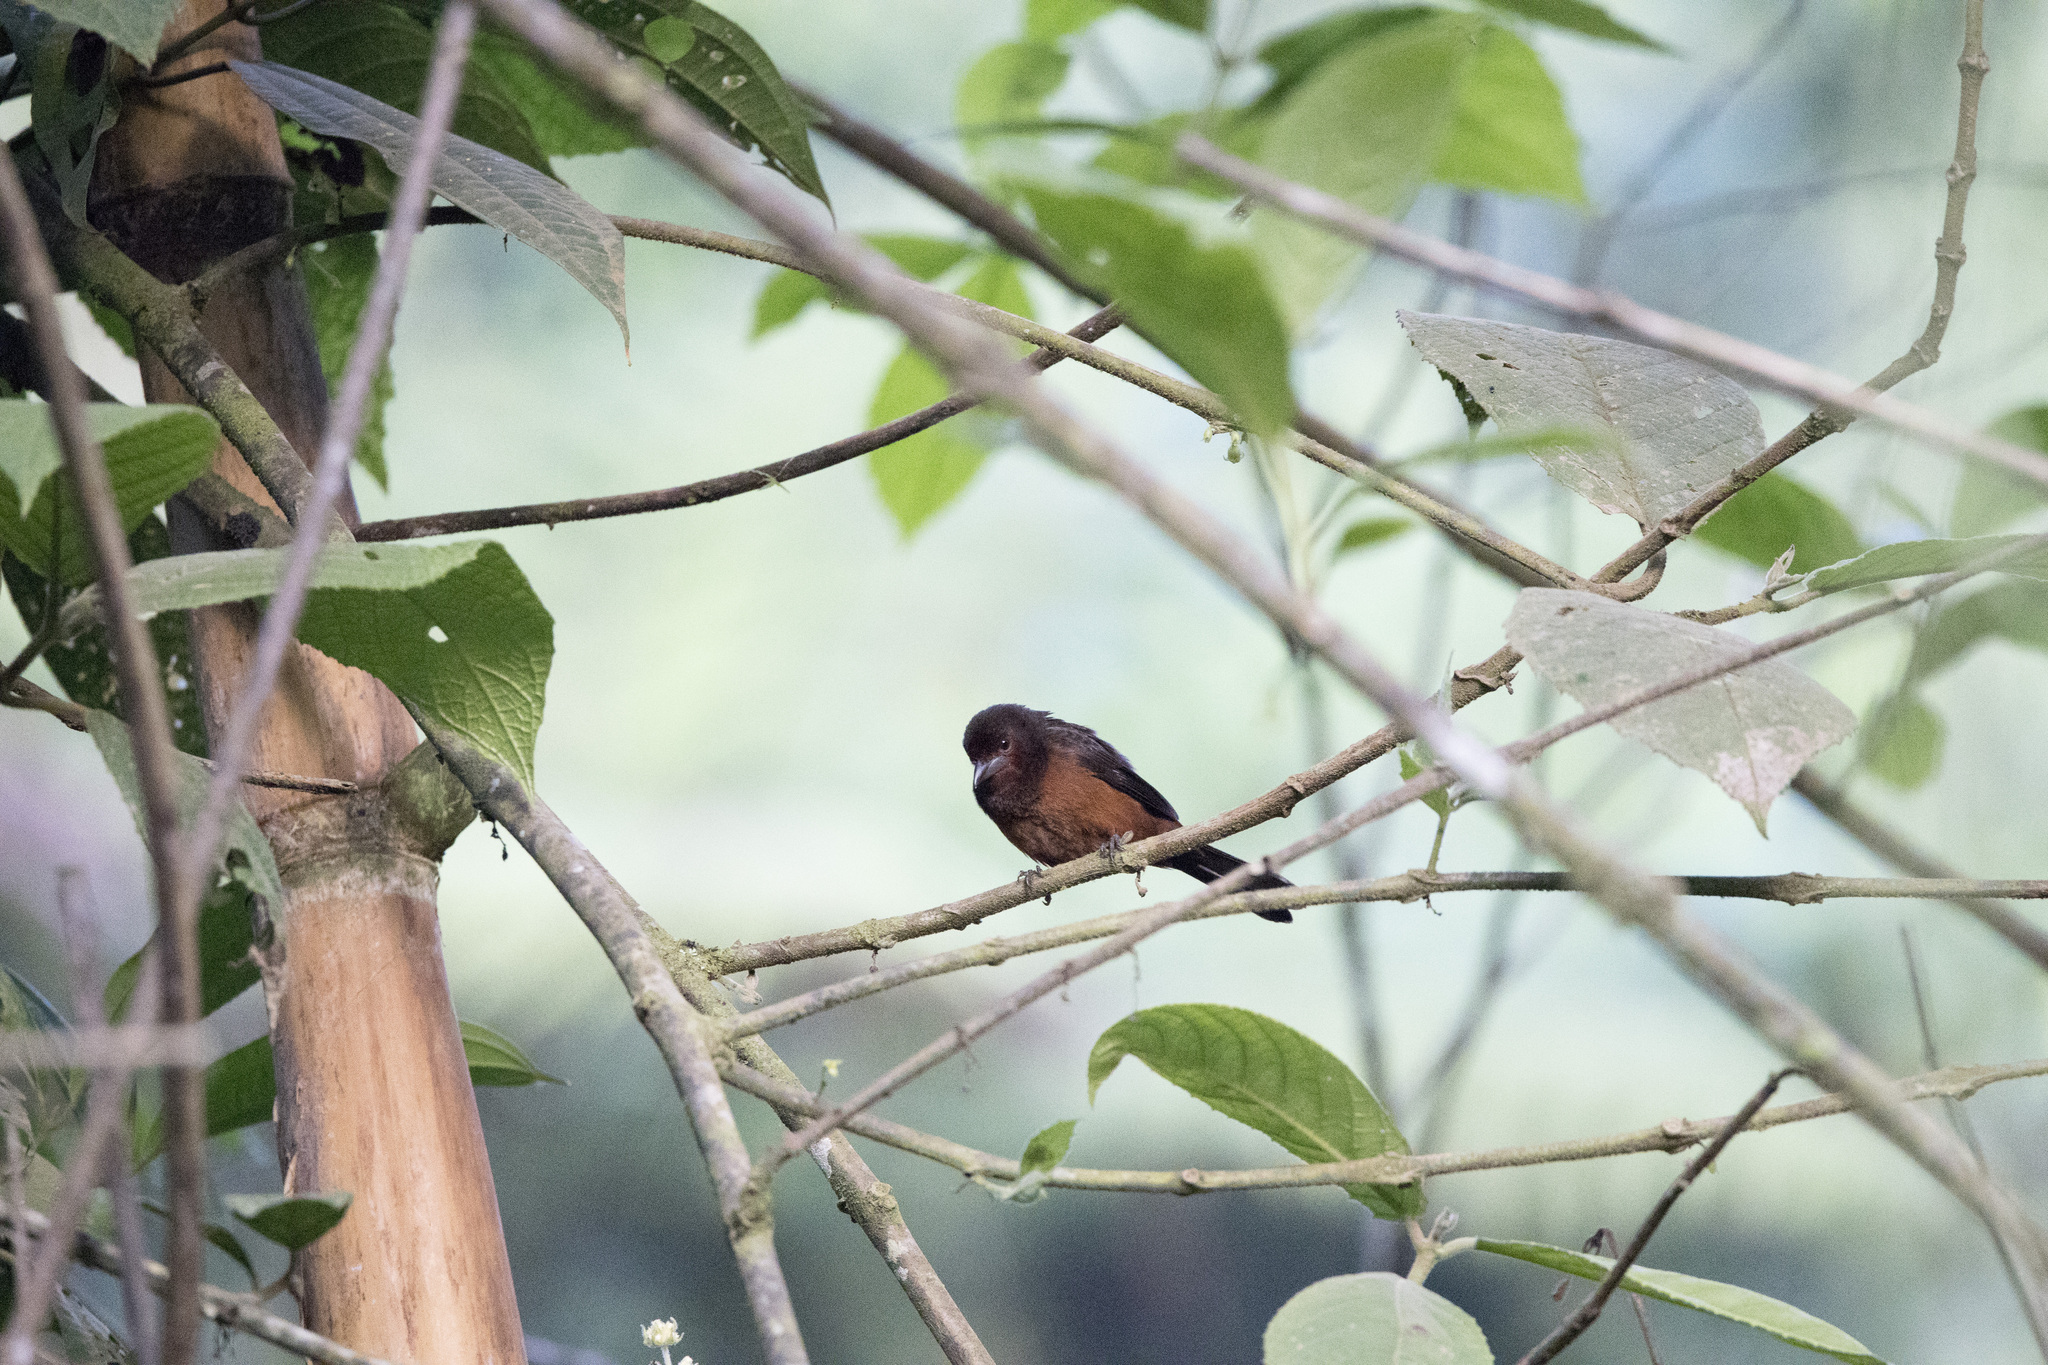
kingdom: Animalia
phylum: Chordata
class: Aves
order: Passeriformes
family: Thraupidae
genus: Ramphocelus
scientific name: Ramphocelus carbo
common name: Silver-beaked tanager
